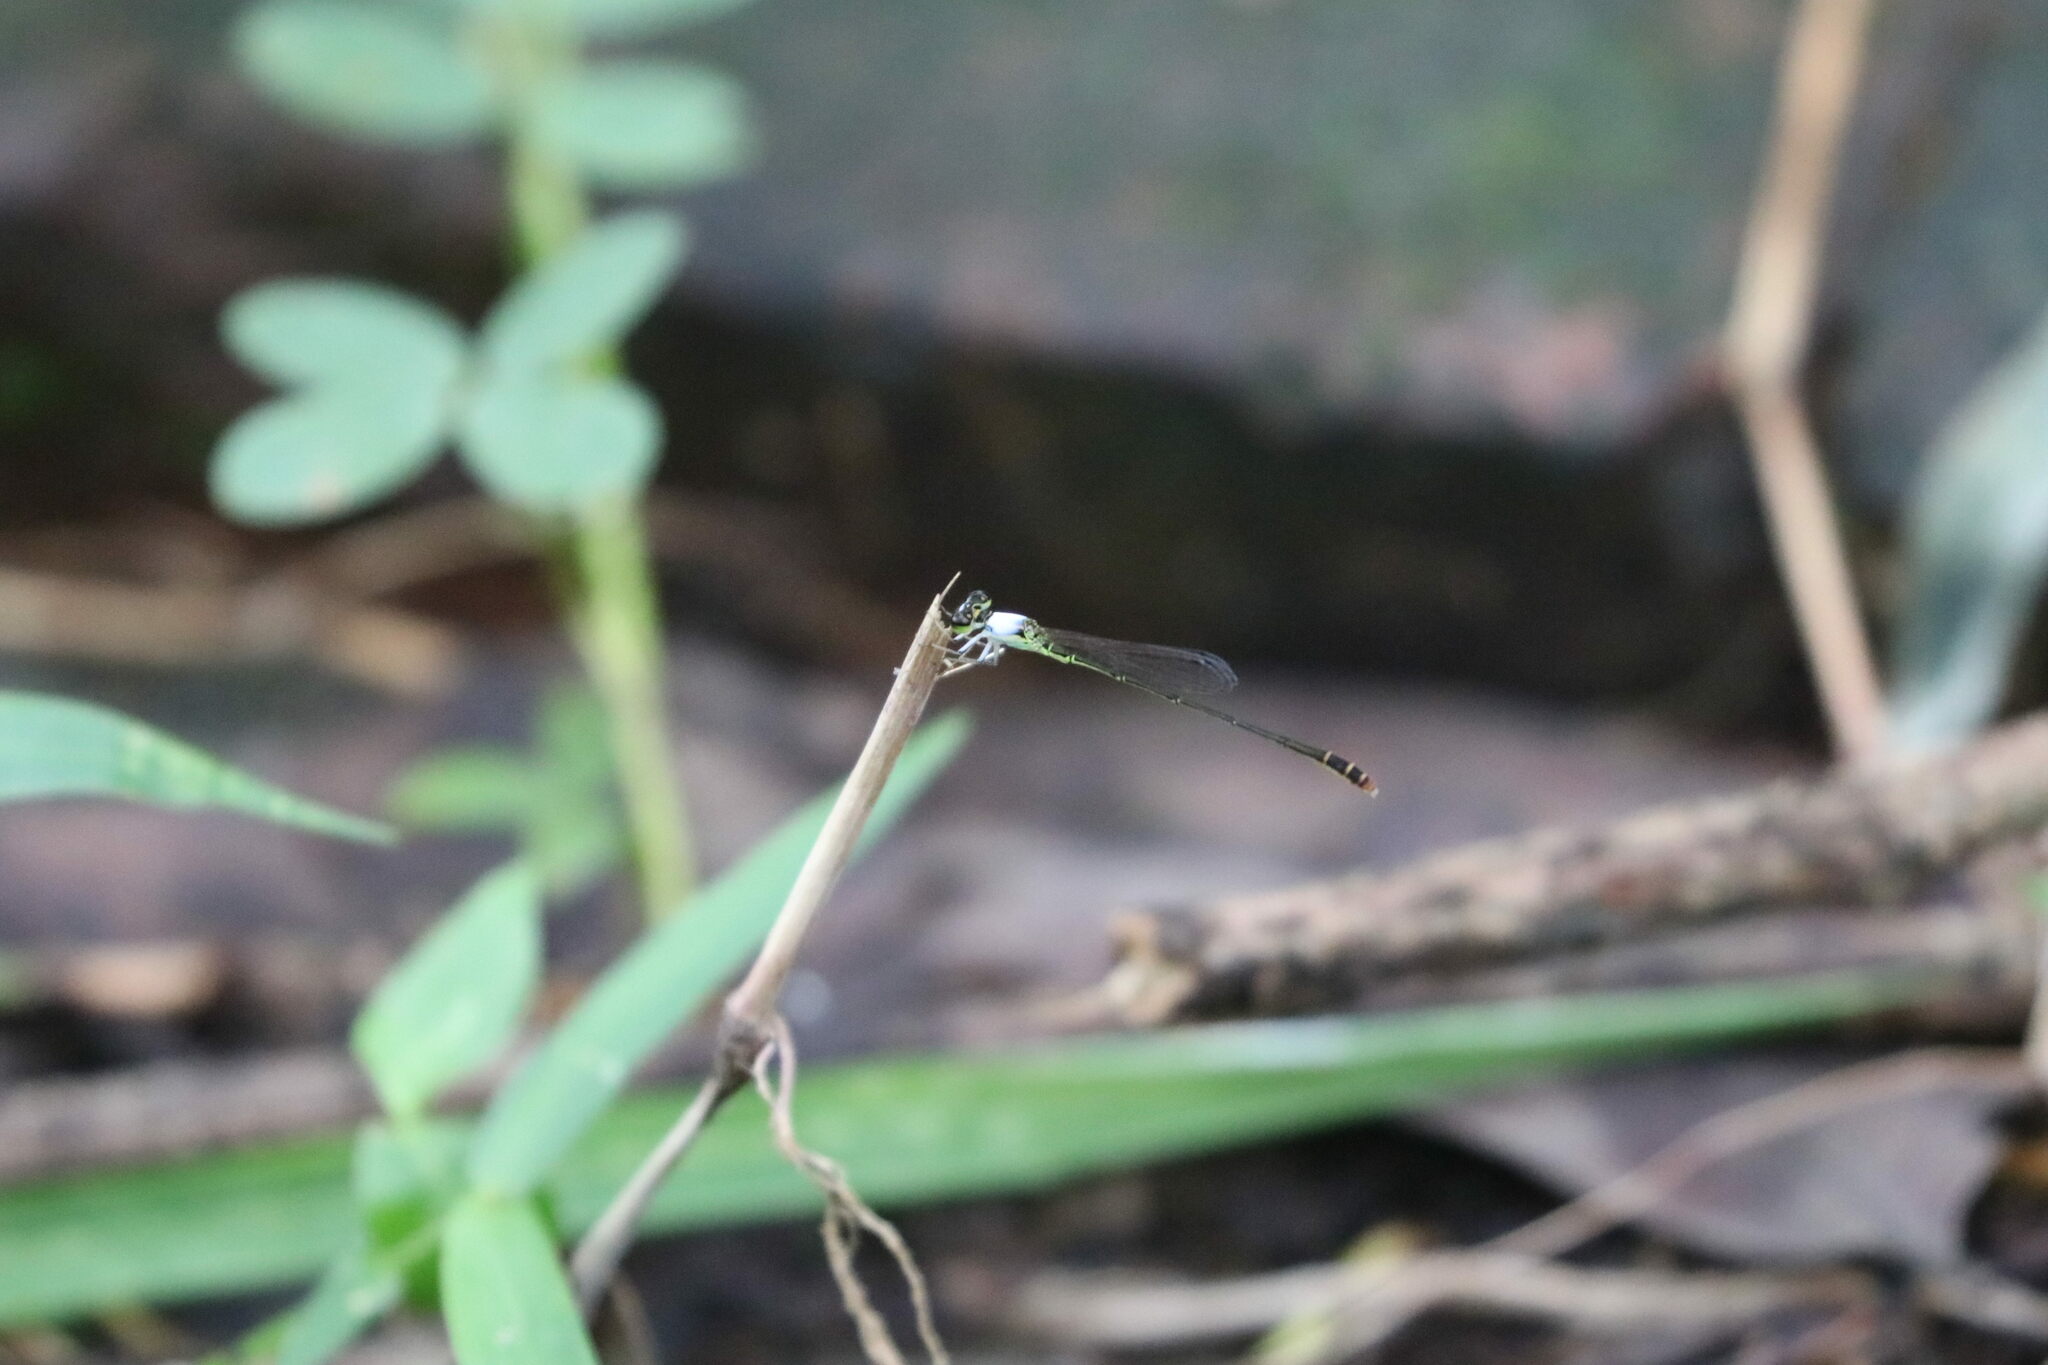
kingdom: Animalia
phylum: Arthropoda
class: Insecta
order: Odonata
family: Coenagrionidae
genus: Agriocnemis
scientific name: Agriocnemis femina
